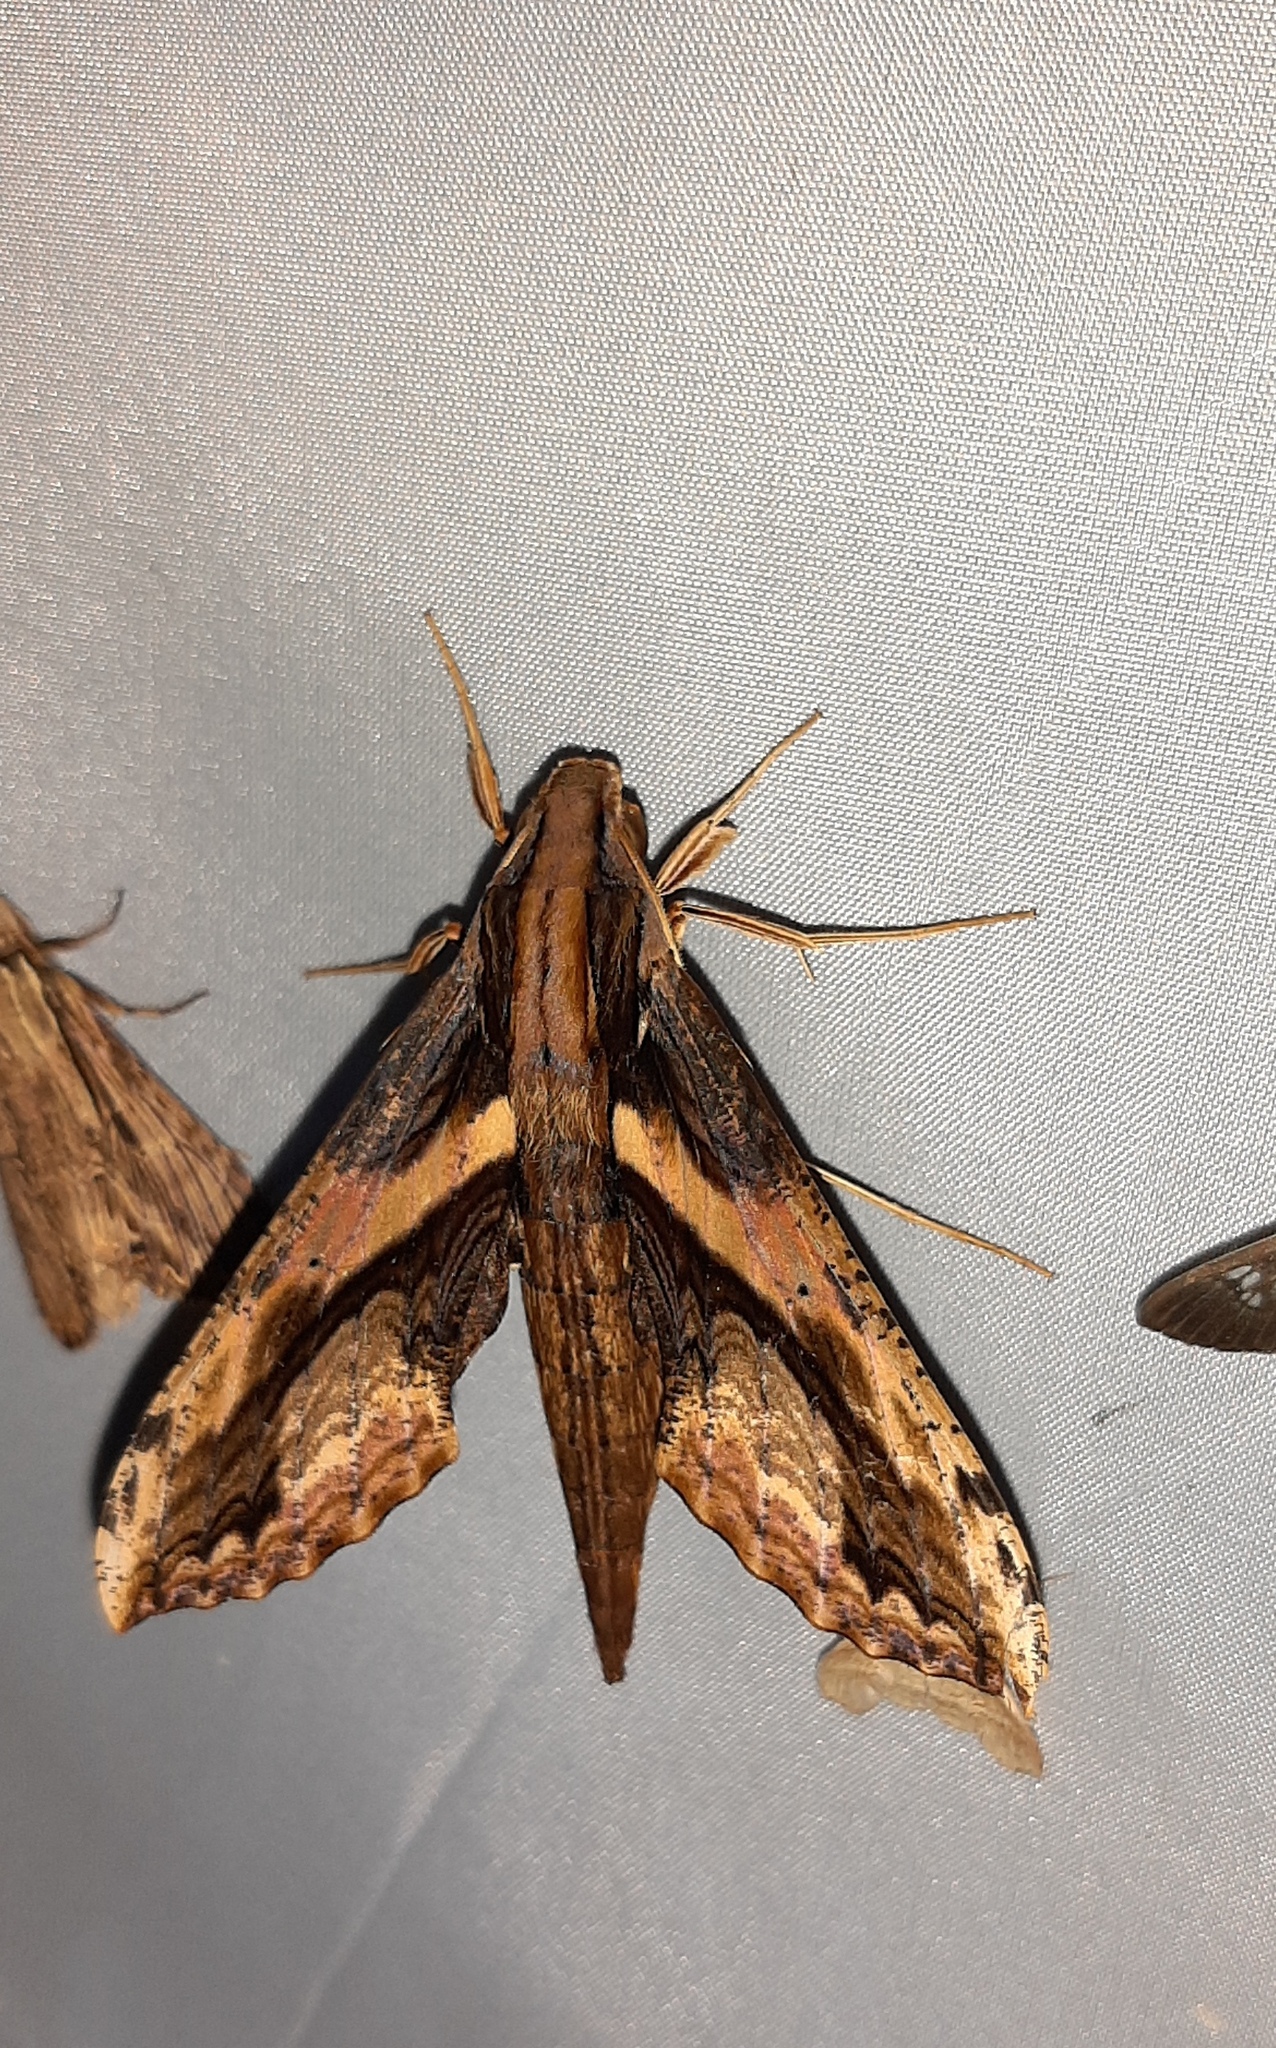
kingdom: Animalia
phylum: Arthropoda
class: Insecta
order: Lepidoptera
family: Sphingidae
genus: Xylophanes
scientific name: Xylophanes ceratomioides
